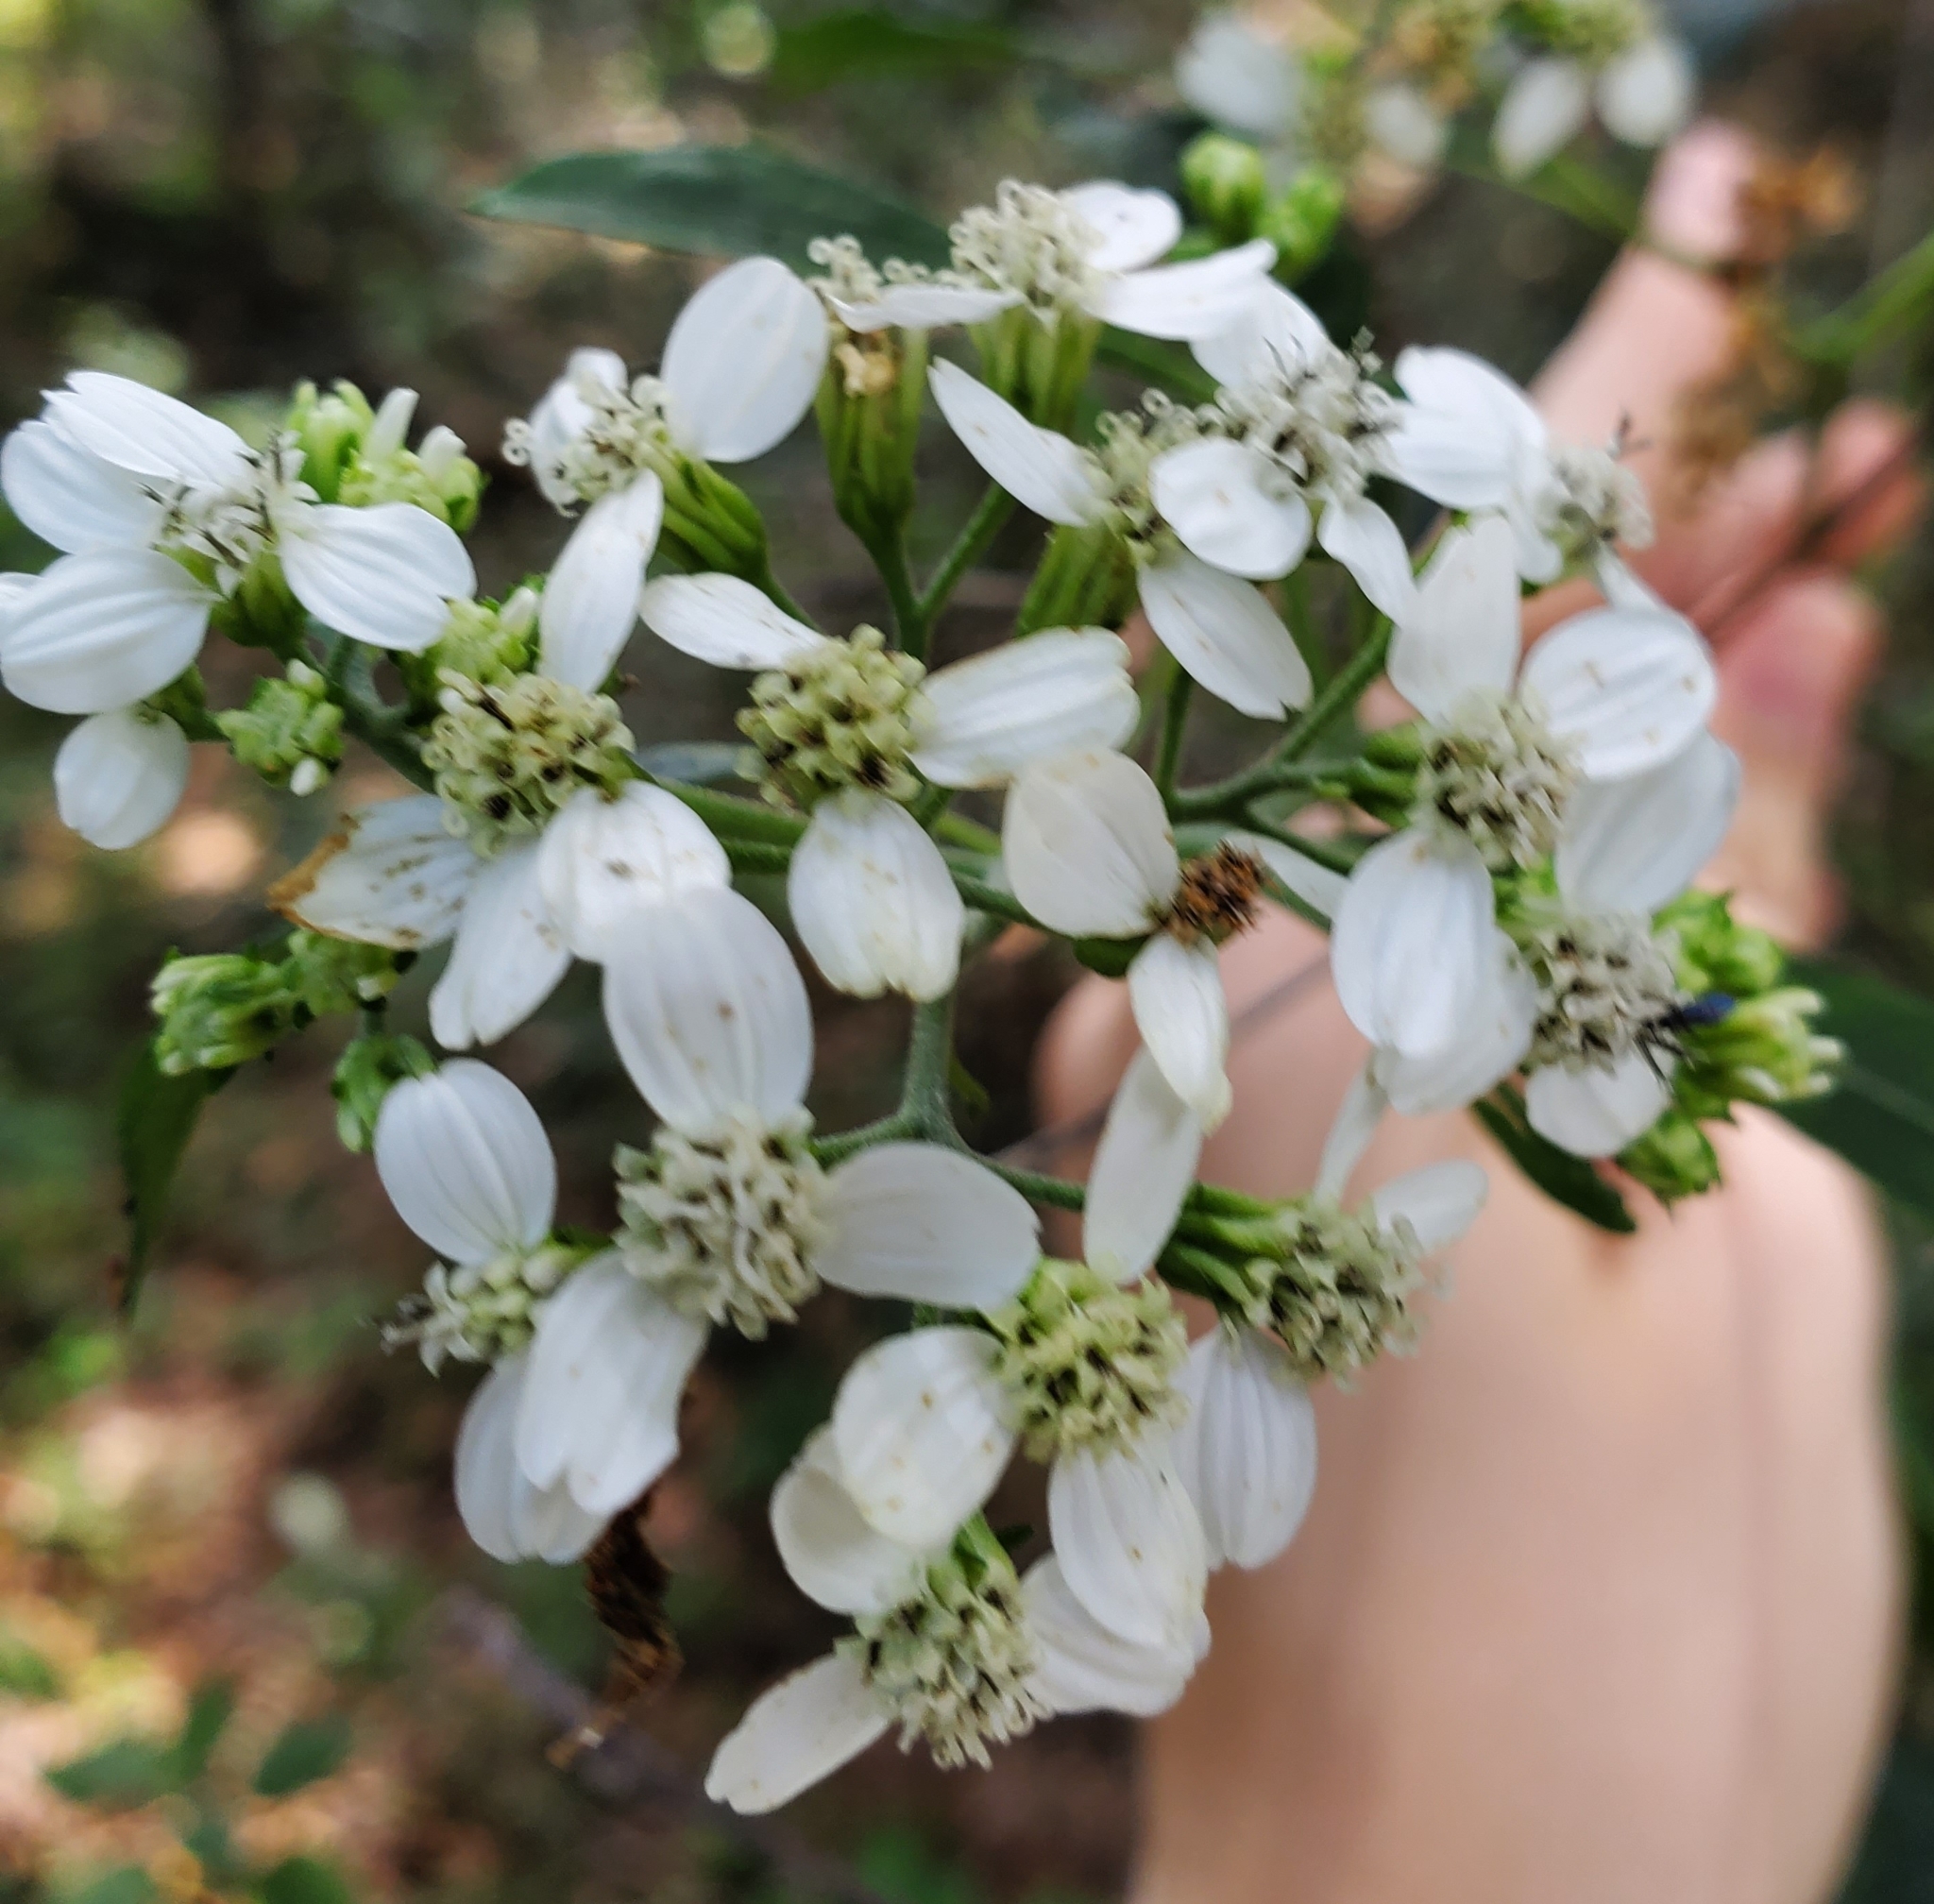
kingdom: Plantae
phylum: Tracheophyta
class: Magnoliopsida
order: Asterales
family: Asteraceae
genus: Verbesina
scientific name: Verbesina virginica
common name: Frostweed
